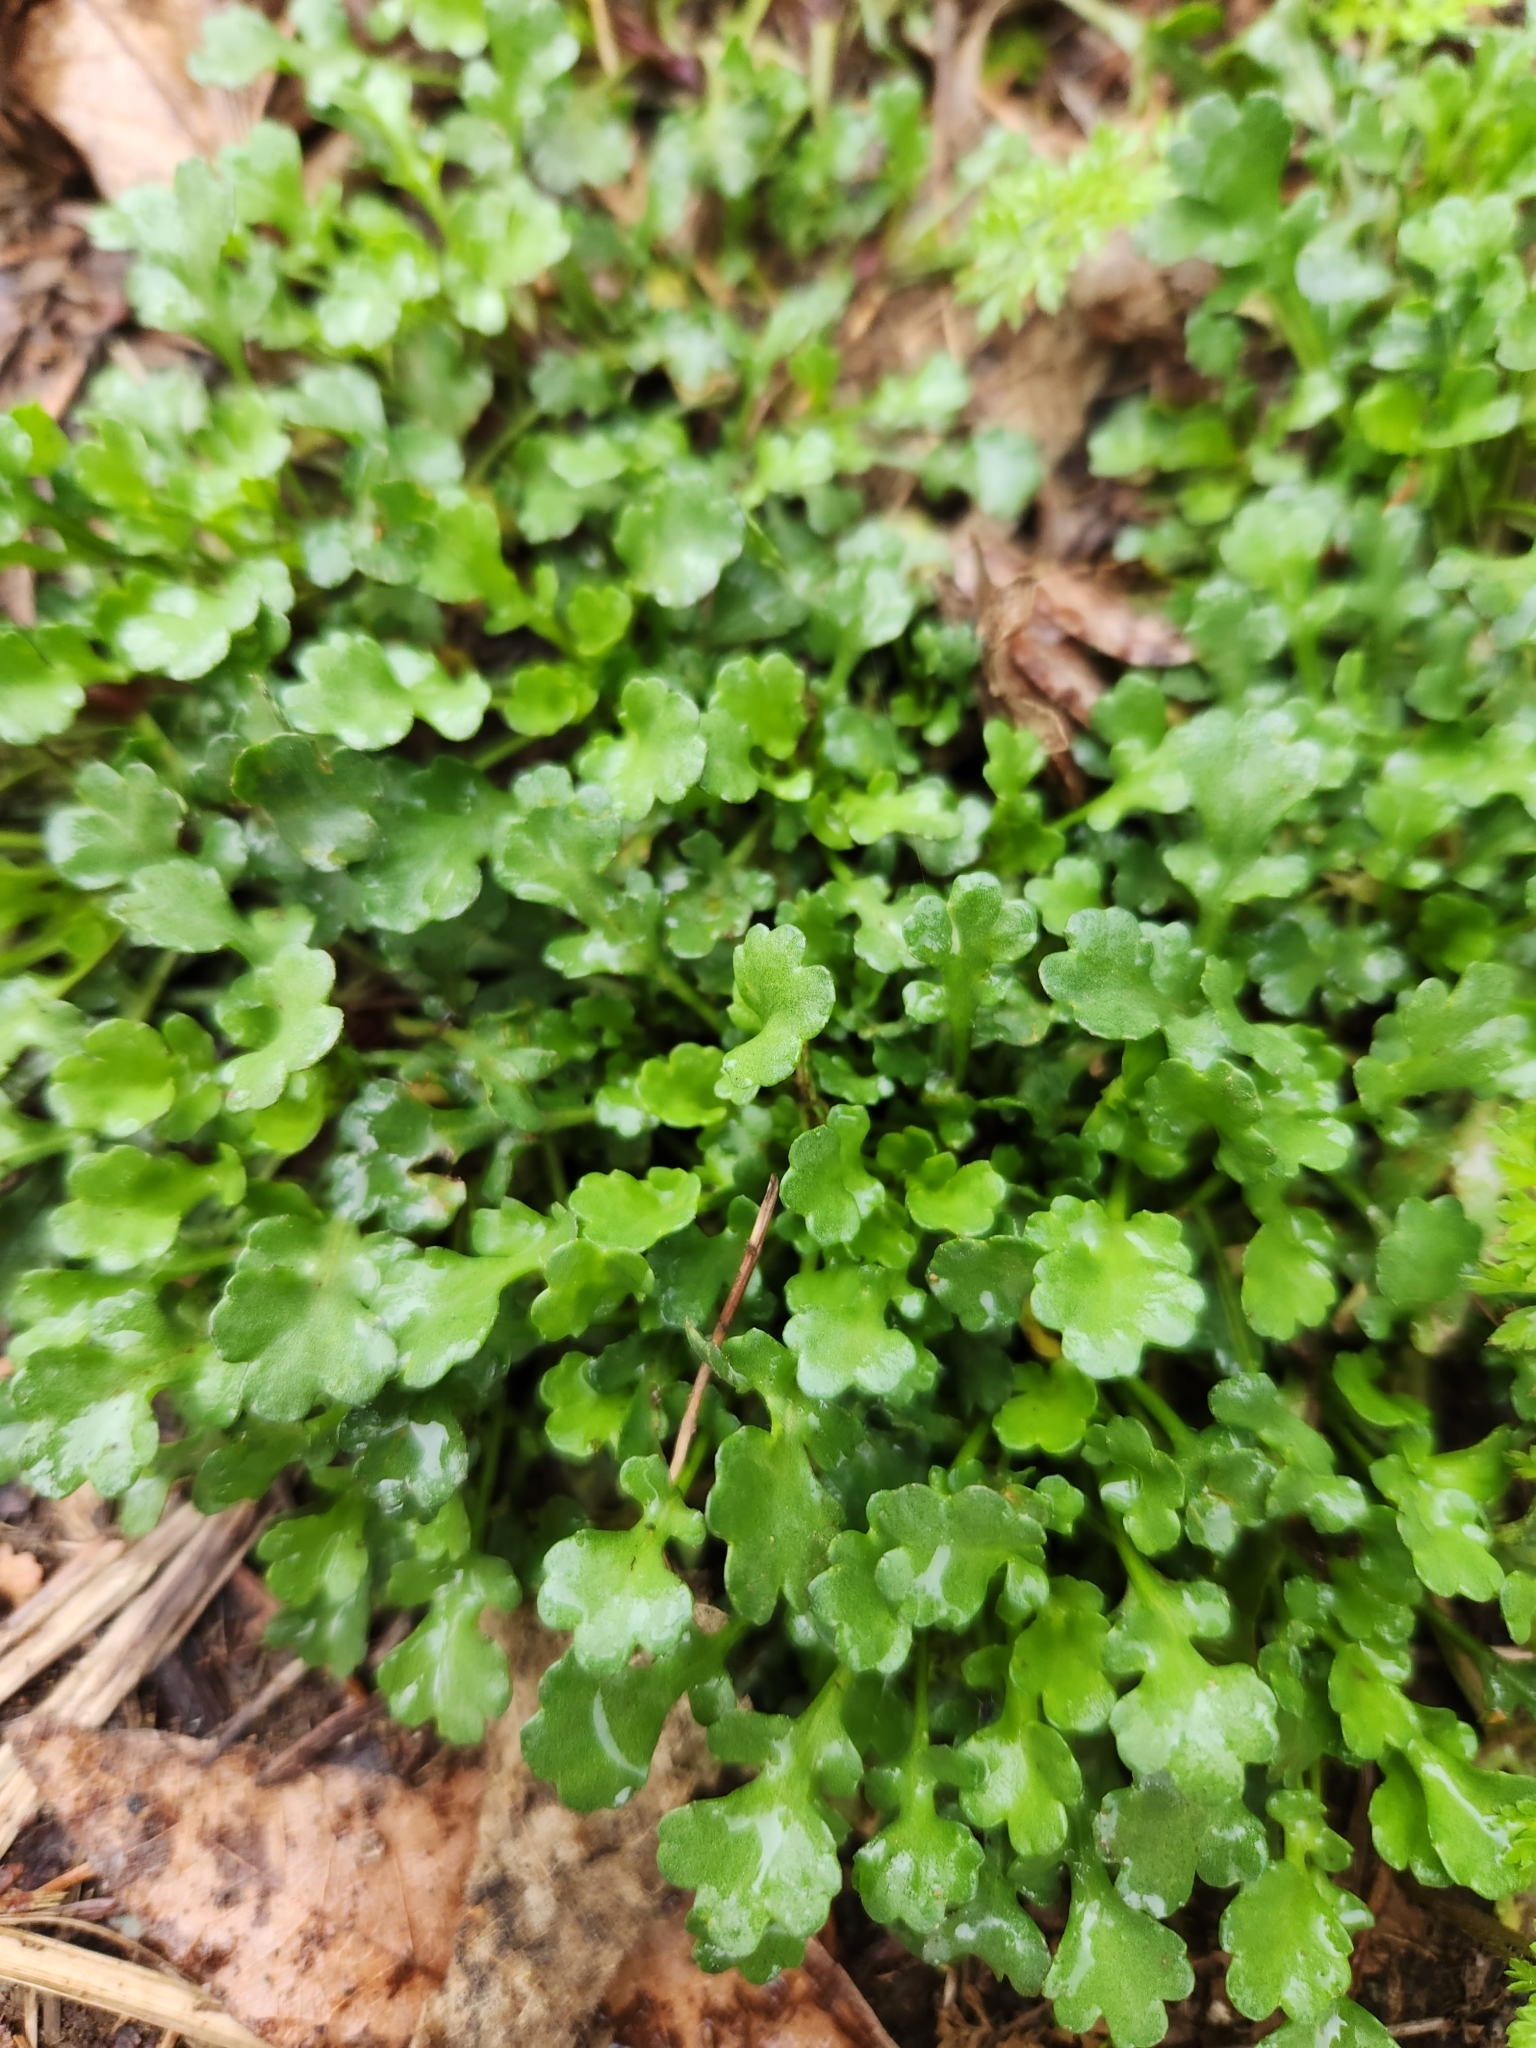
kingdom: Plantae
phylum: Tracheophyta
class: Magnoliopsida
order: Asterales
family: Asteraceae
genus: Leucanthemum
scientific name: Leucanthemum vulgare
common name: Oxeye daisy
